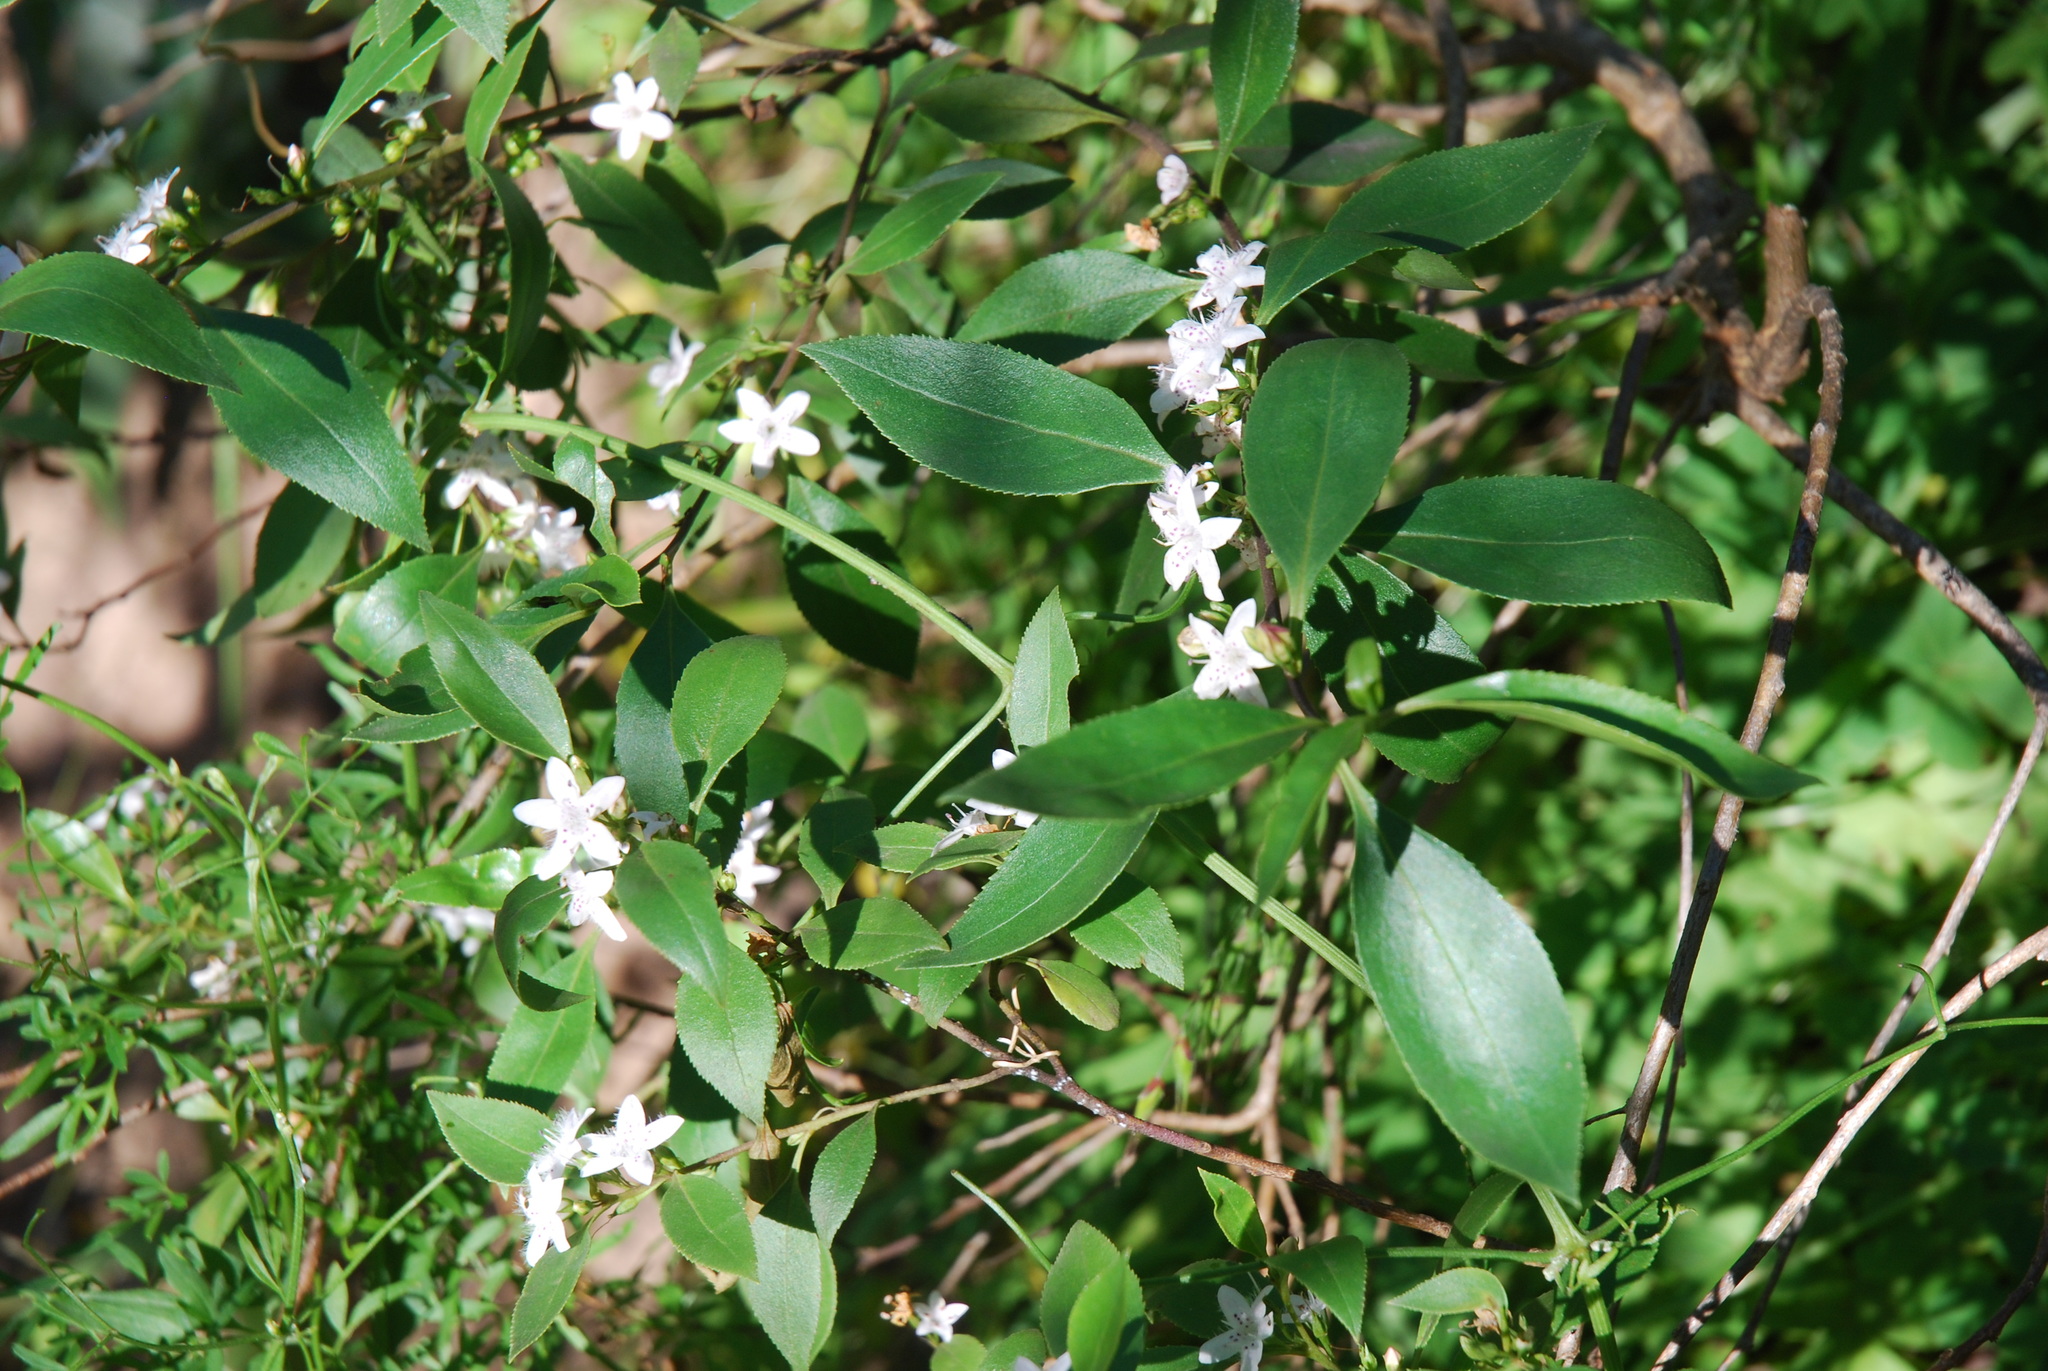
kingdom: Plantae
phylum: Tracheophyta
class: Magnoliopsida
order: Lamiales
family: Scrophulariaceae
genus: Myoporum
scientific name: Myoporum petiolatum
